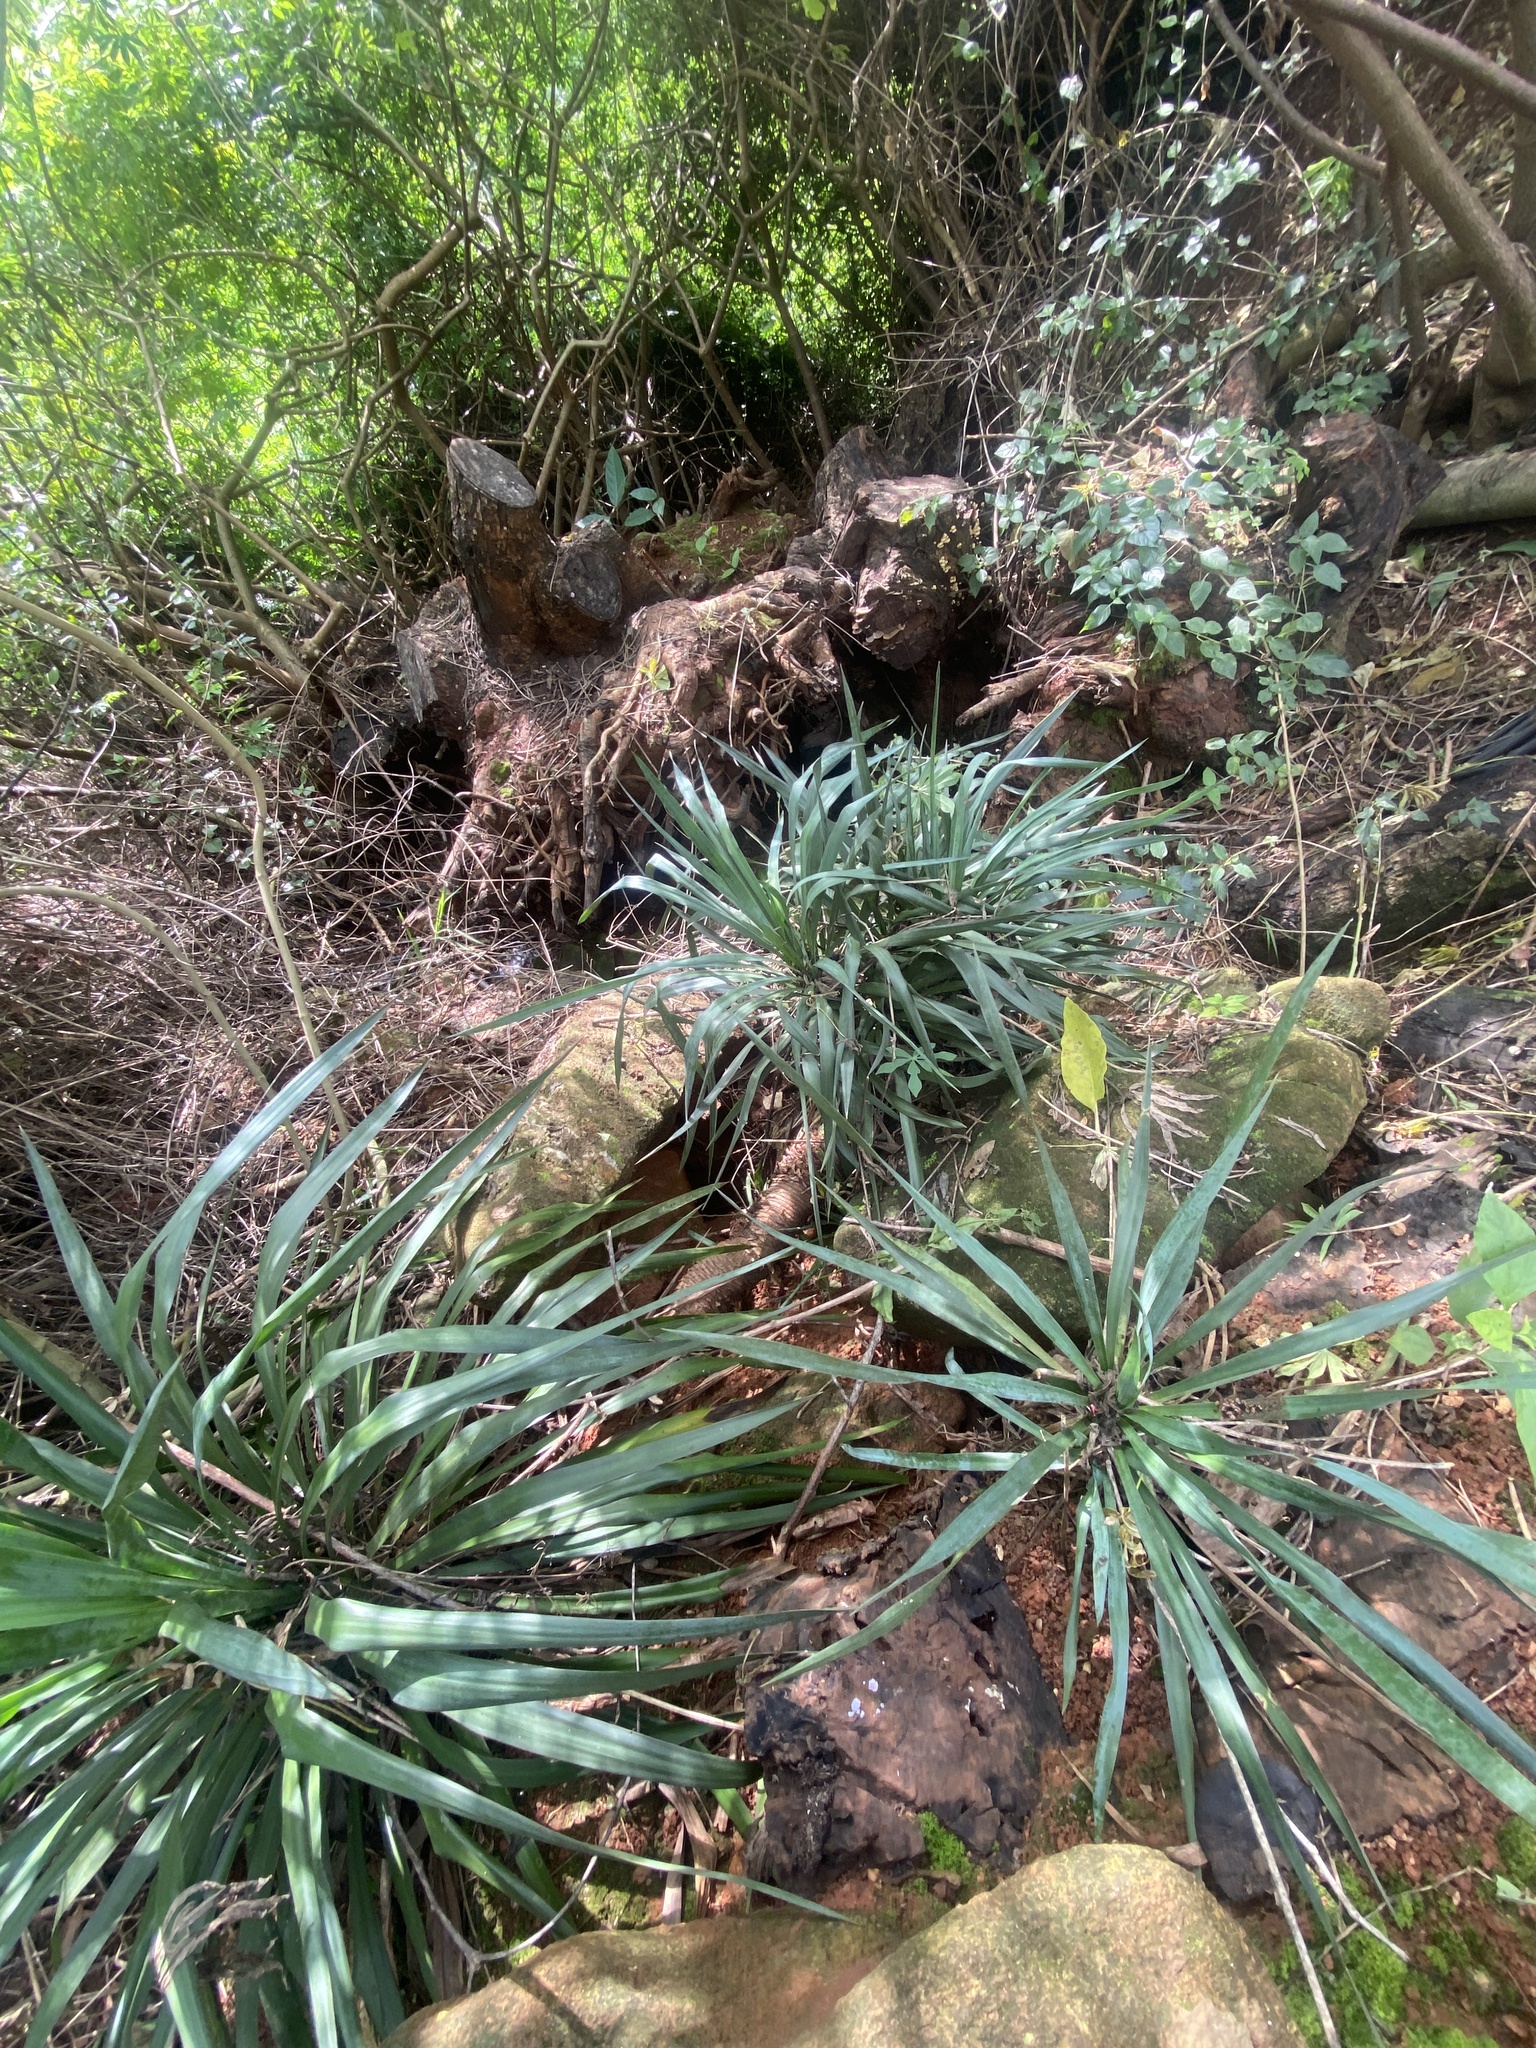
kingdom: Plantae
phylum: Tracheophyta
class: Liliopsida
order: Asparagales
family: Asparagaceae
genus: Yucca
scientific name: Yucca gloriosa
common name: Spanish-dagger
